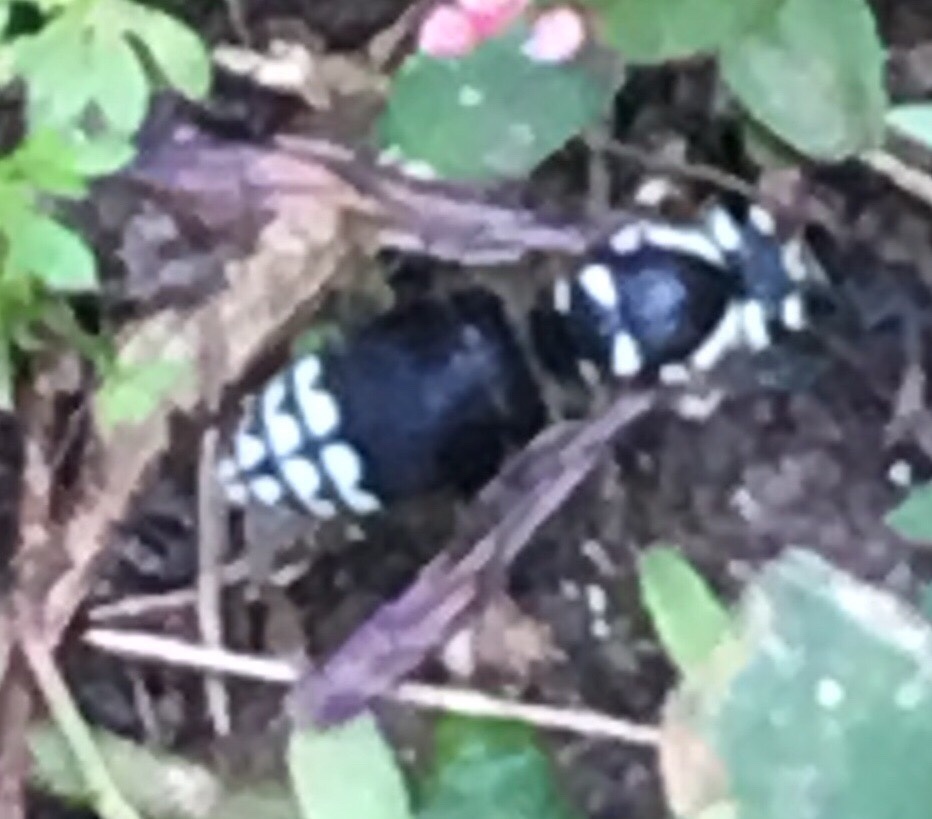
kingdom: Animalia
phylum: Arthropoda
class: Insecta
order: Hymenoptera
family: Vespidae
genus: Dolichovespula
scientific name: Dolichovespula maculata
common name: Bald-faced hornet
